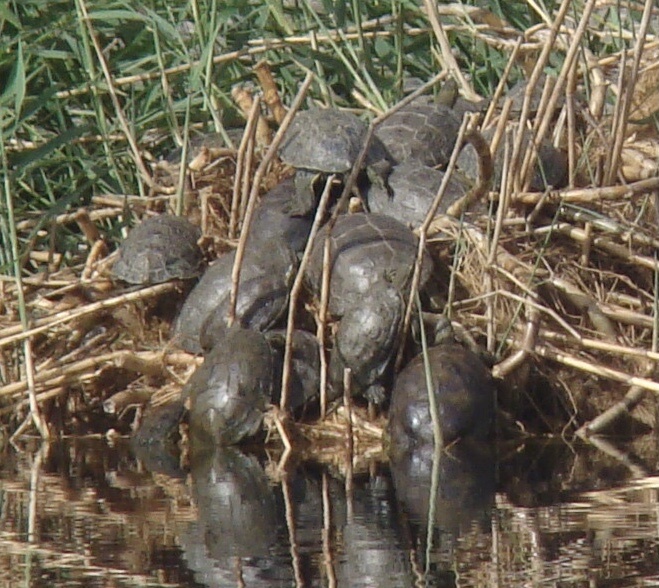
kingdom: Animalia
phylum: Chordata
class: Testudines
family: Geoemydidae
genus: Mauremys
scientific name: Mauremys caspica
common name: Caspian turtle
